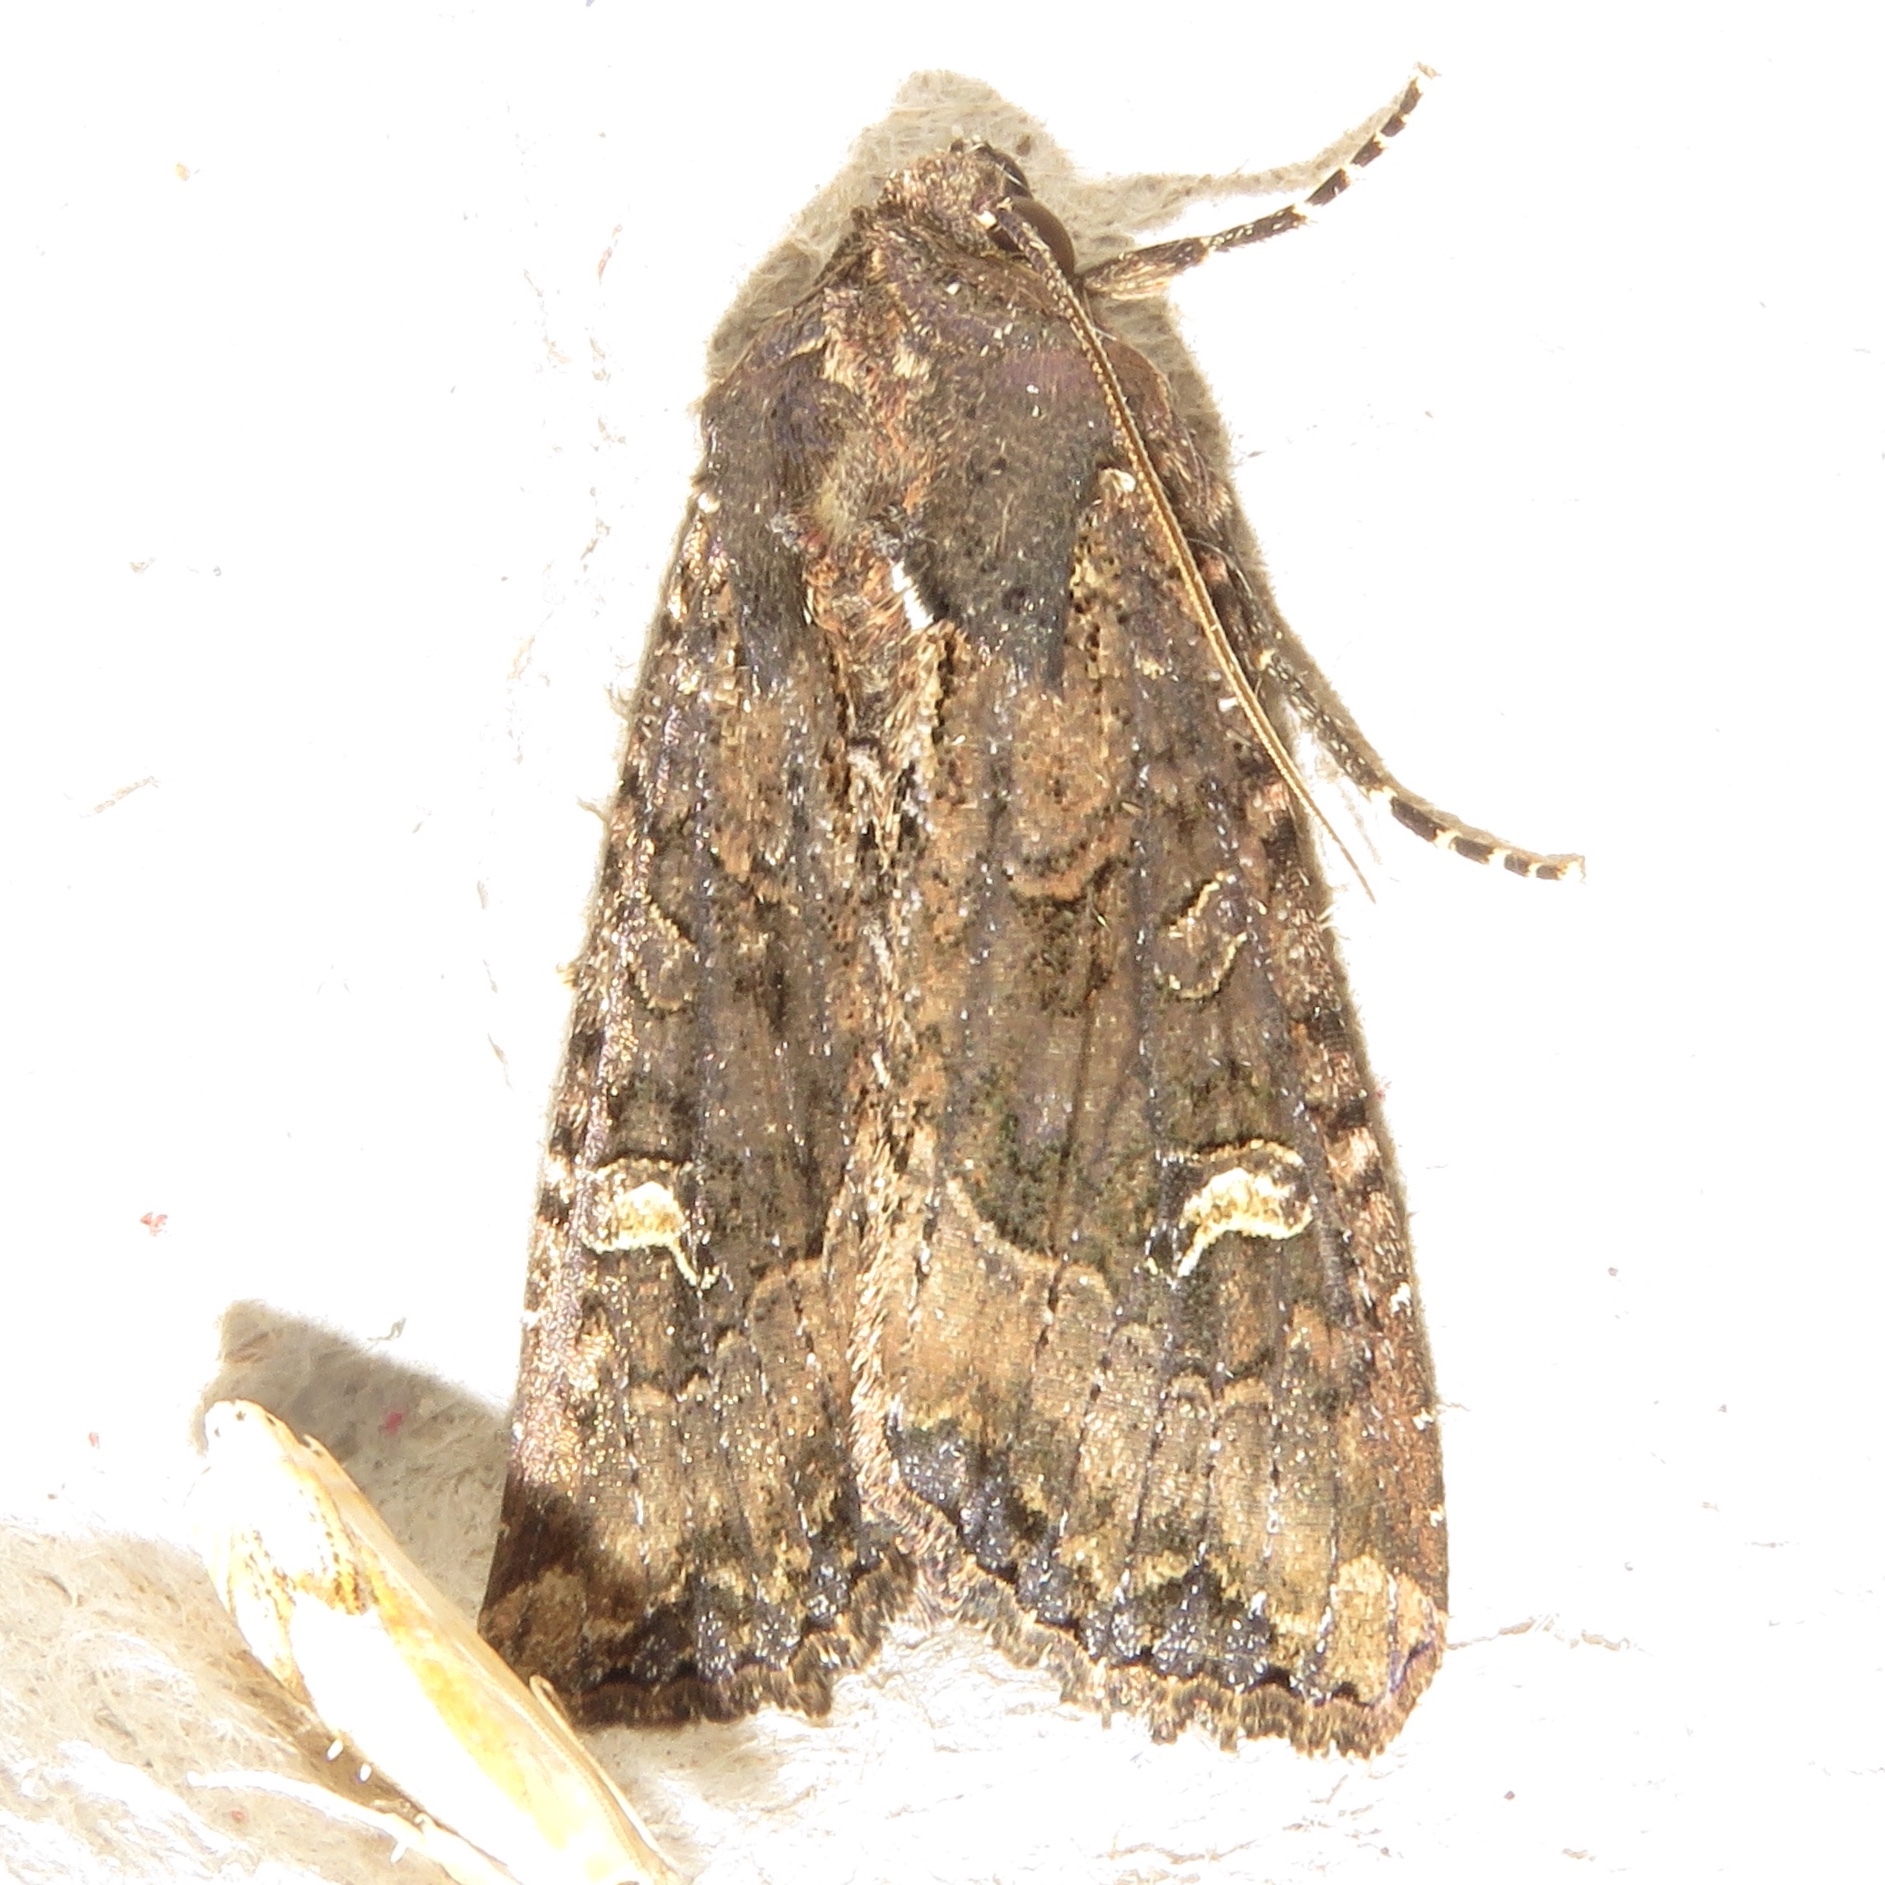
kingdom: Animalia
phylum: Arthropoda
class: Insecta
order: Lepidoptera
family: Noctuidae
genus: Helotropha
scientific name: Helotropha reniformis
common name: Kidney-spotted rustic moth
